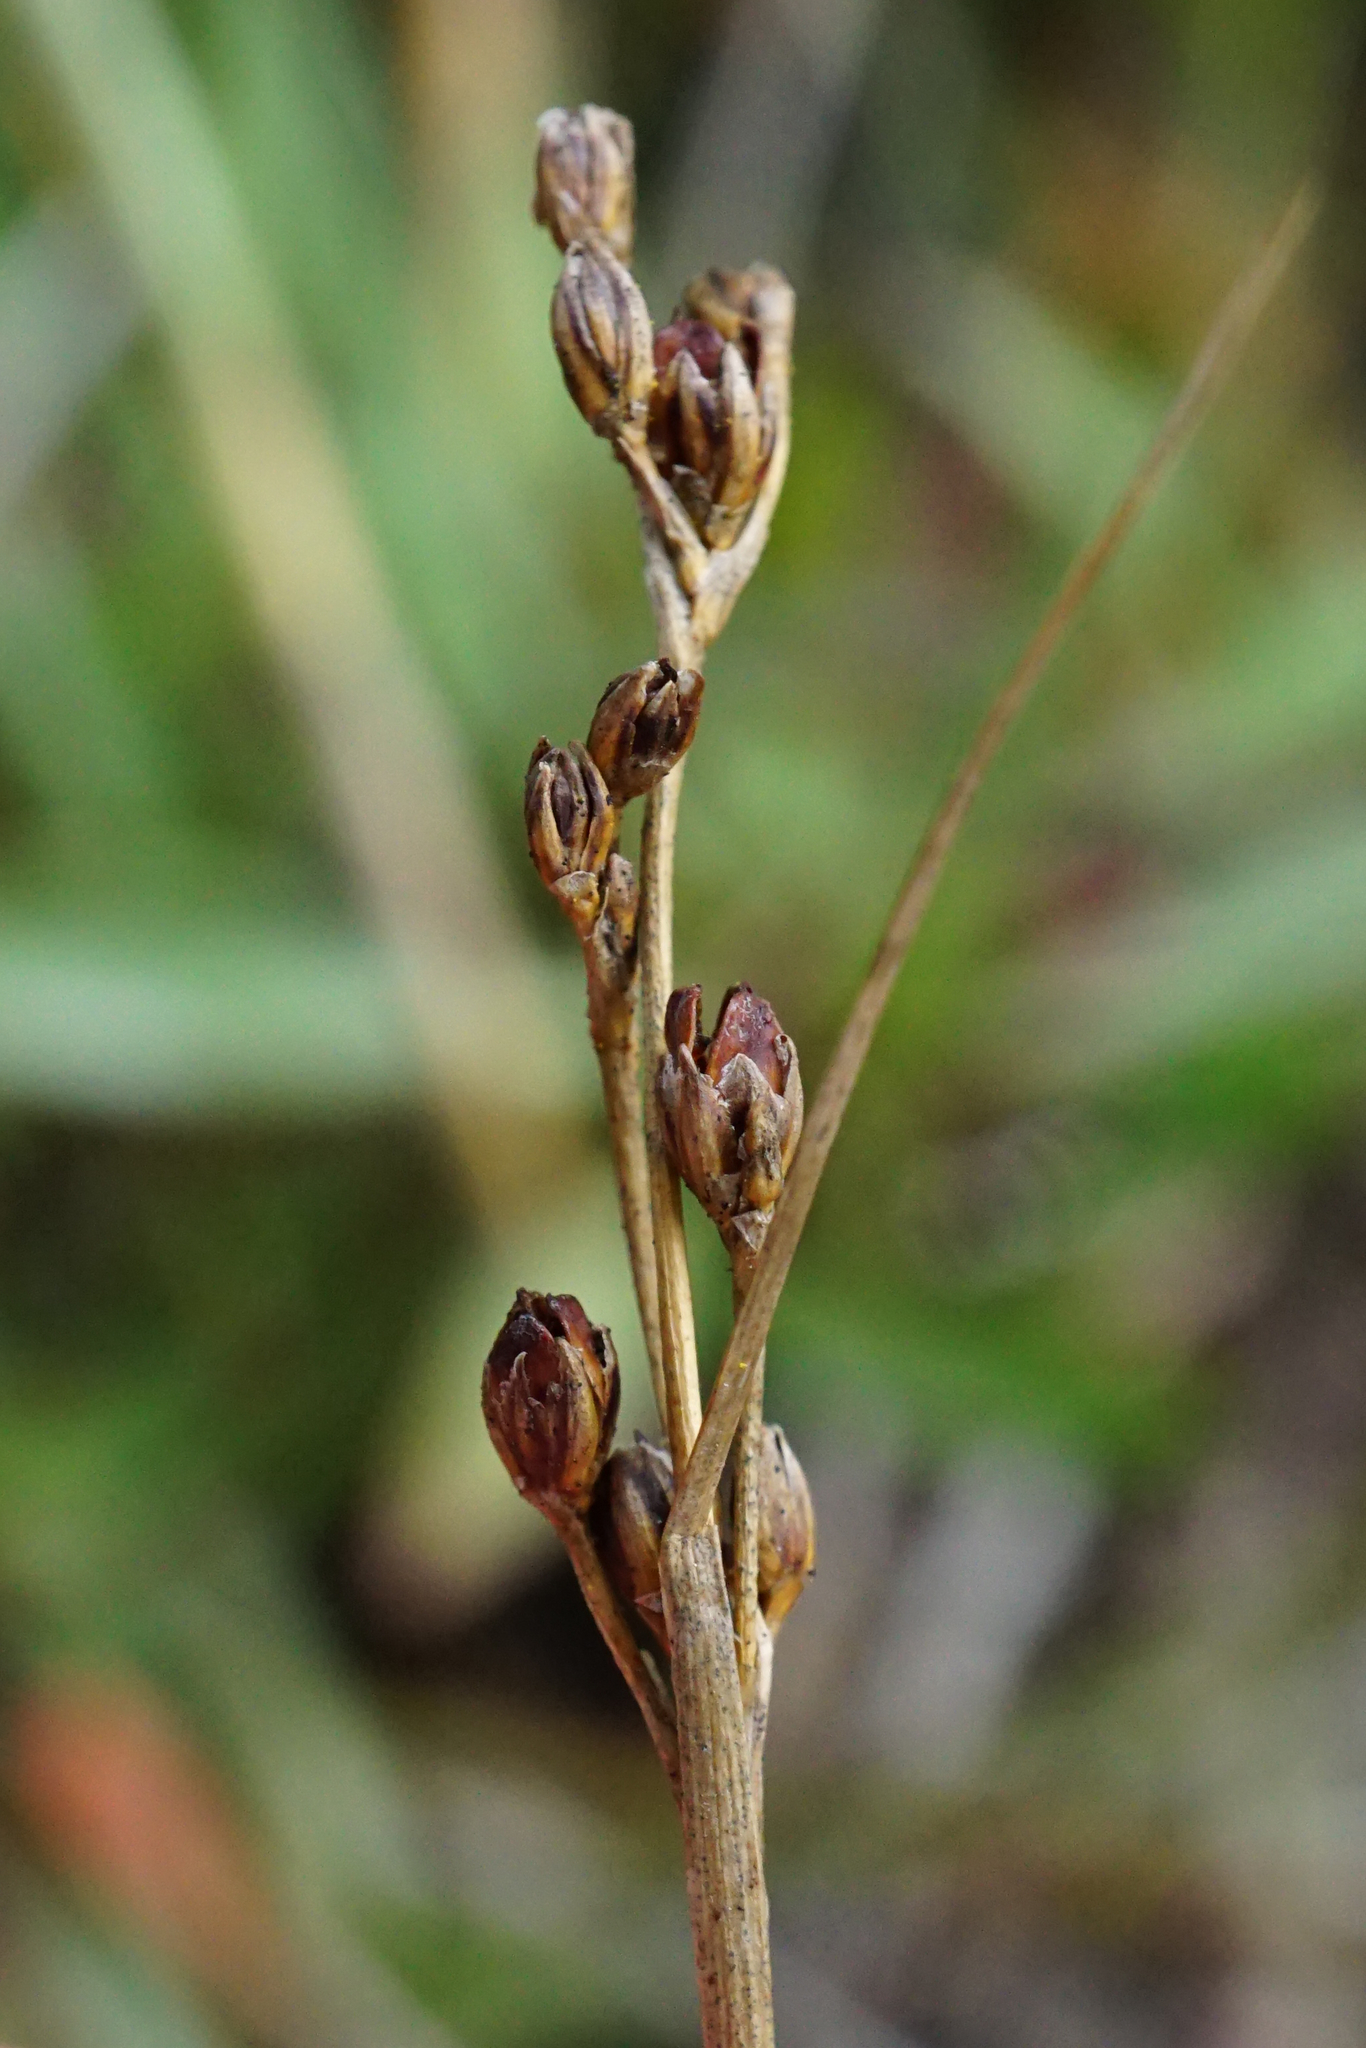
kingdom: Plantae
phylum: Tracheophyta
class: Liliopsida
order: Poales
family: Juncaceae
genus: Juncus
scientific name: Juncus gerardi
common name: Saltmarsh rush
